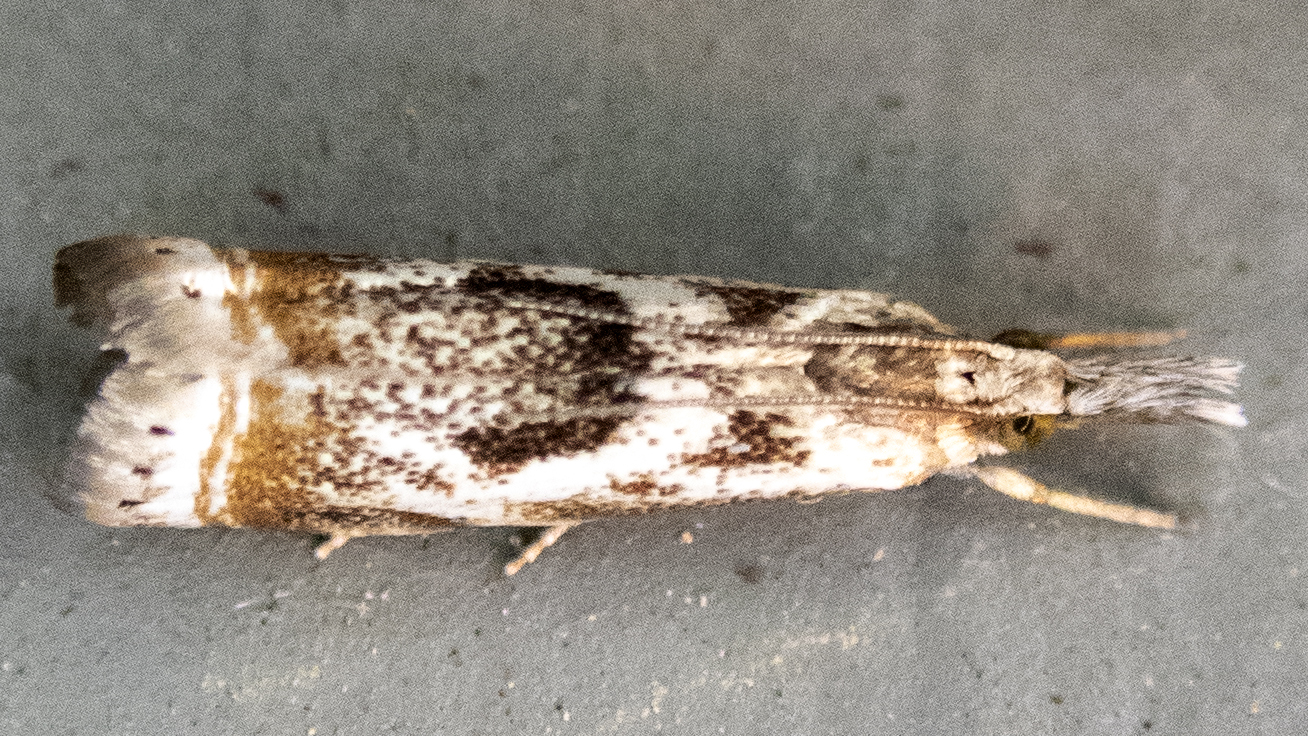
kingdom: Animalia
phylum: Arthropoda
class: Insecta
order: Lepidoptera
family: Crambidae
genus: Microcrambus
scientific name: Microcrambus elegans
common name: Elegant grass-veneer
